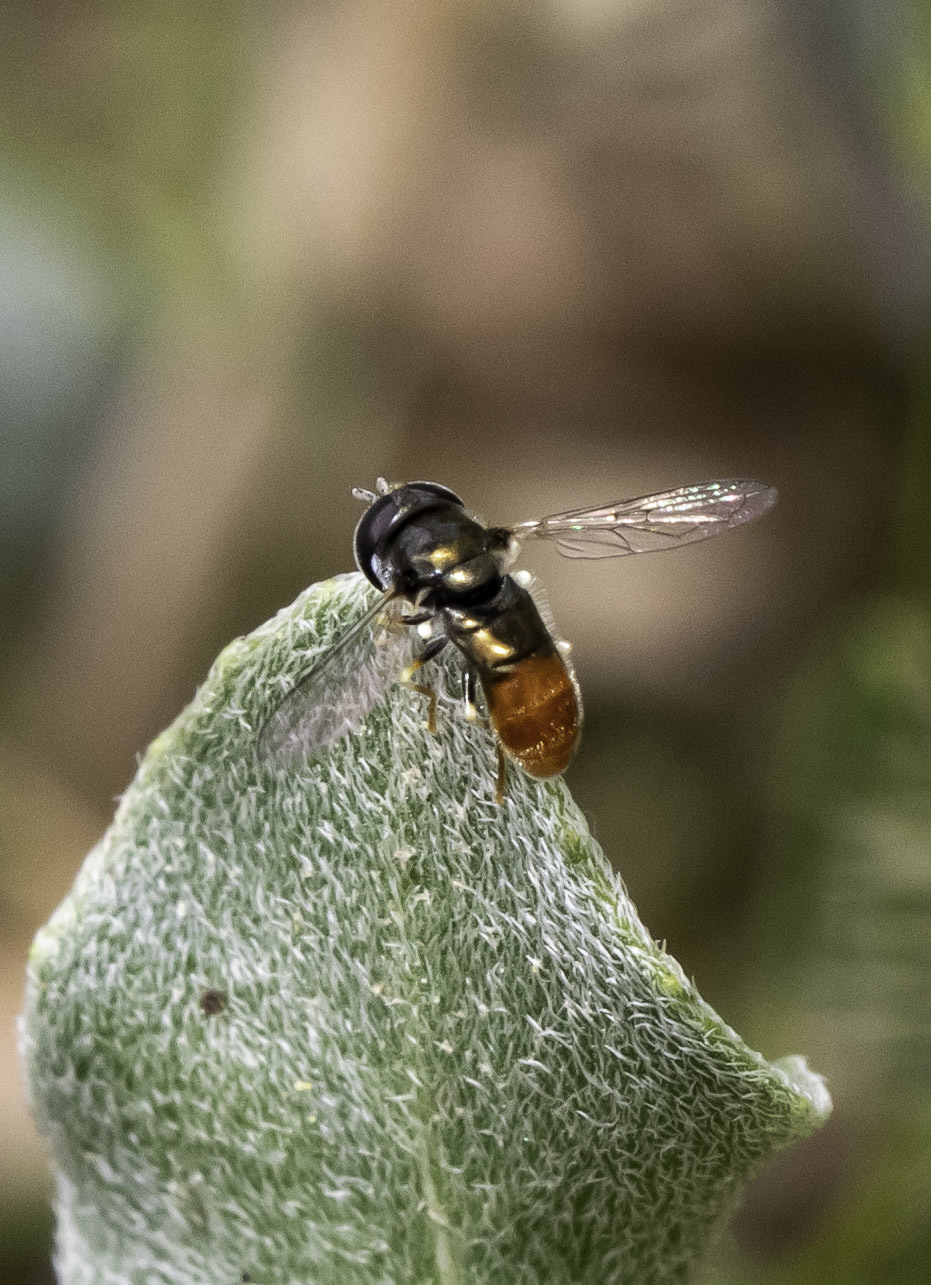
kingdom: Animalia
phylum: Arthropoda
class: Insecta
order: Diptera
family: Syrphidae
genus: Paragus
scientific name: Paragus haemorrhous
